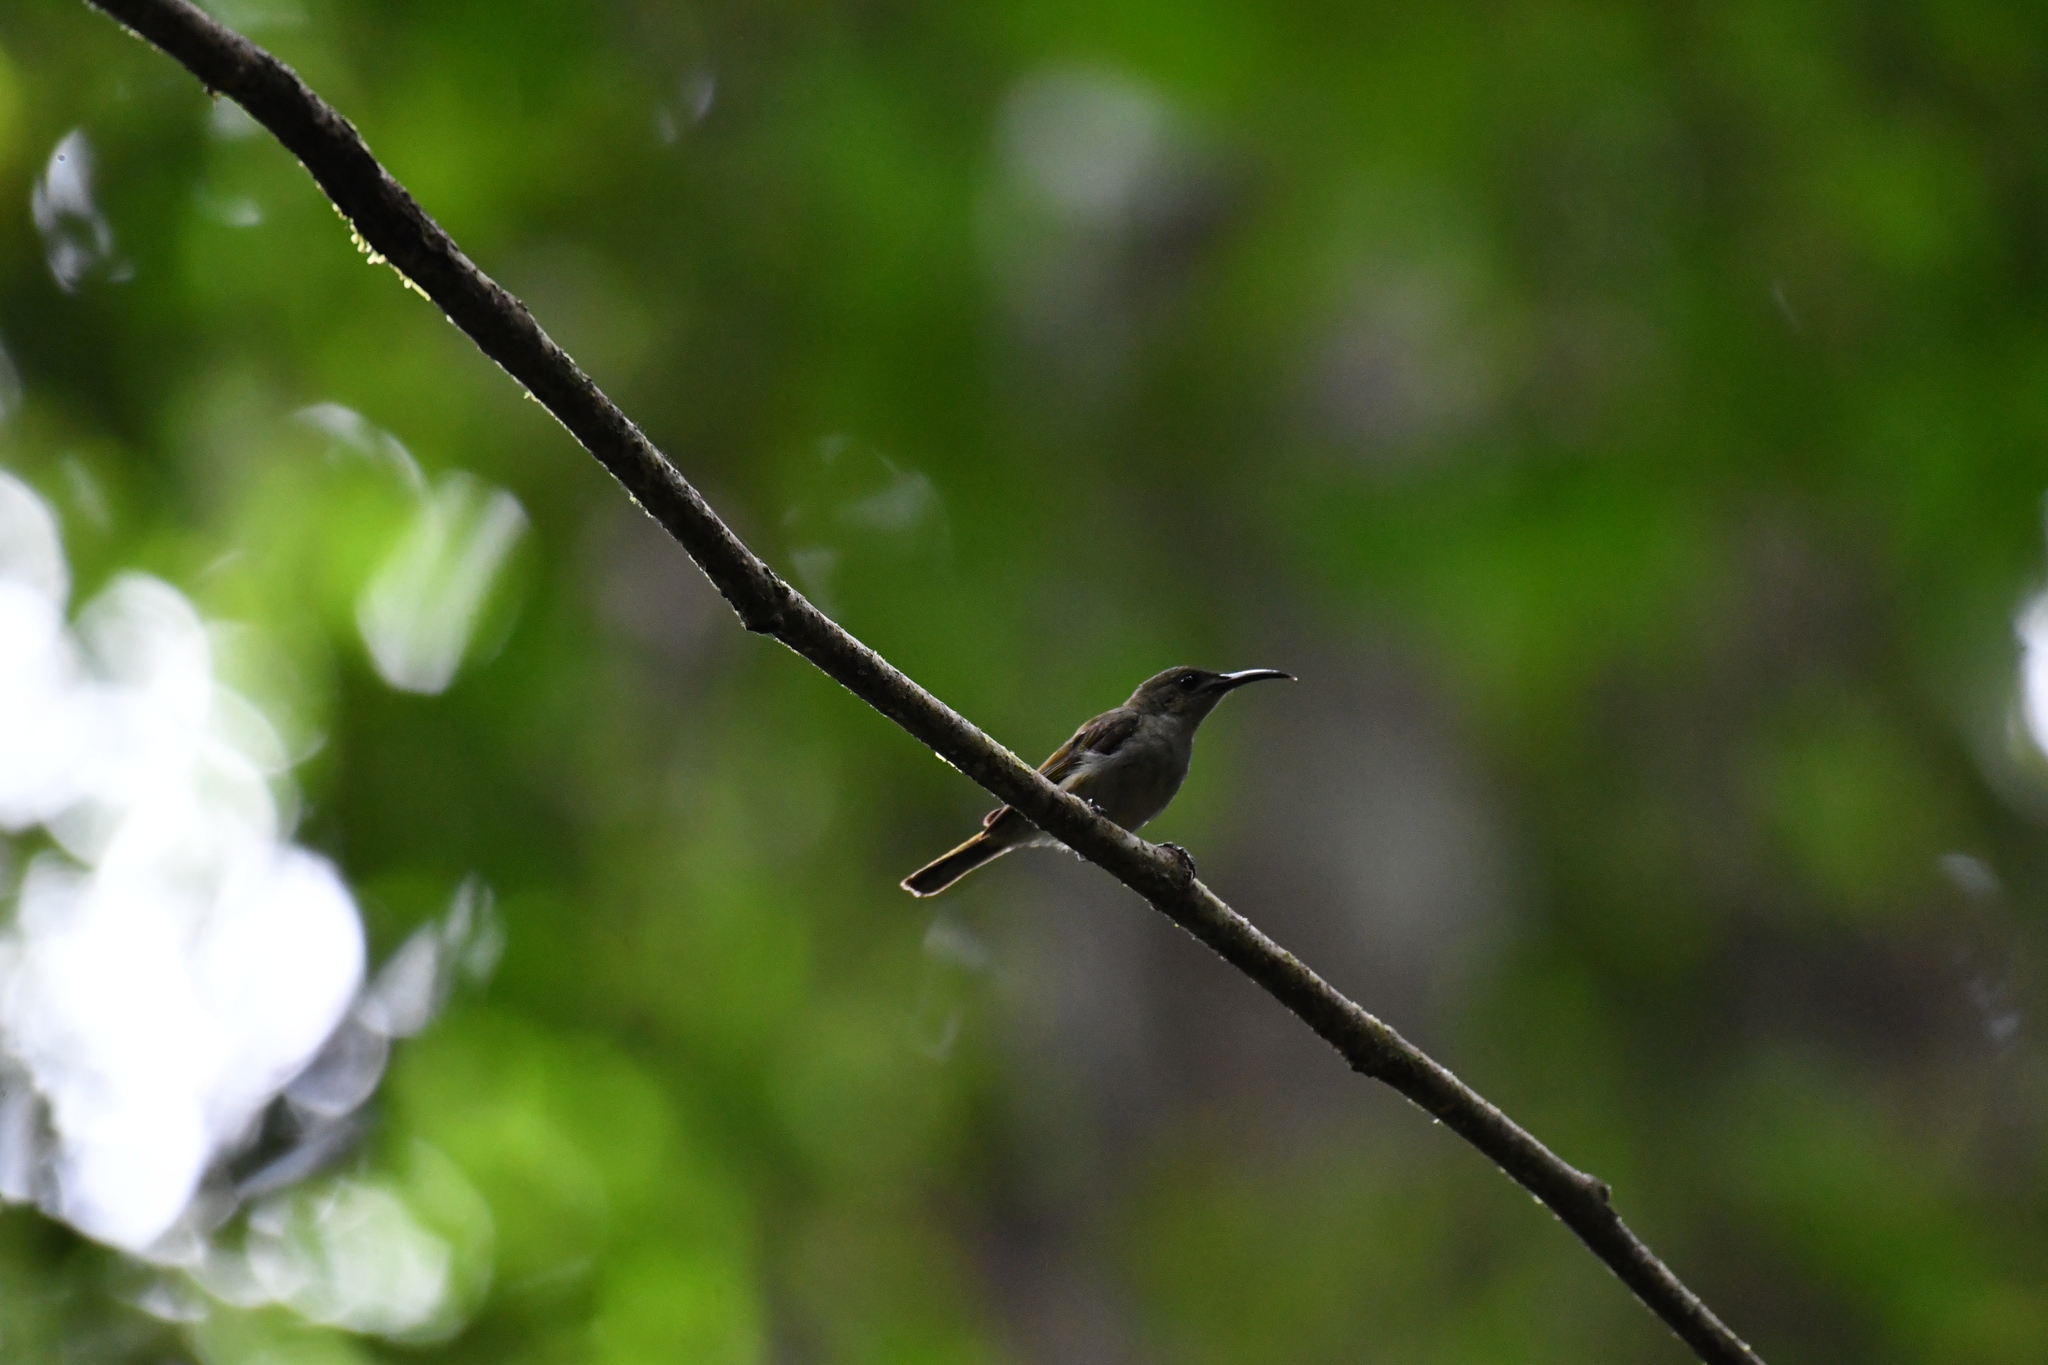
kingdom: Animalia
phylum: Chordata
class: Aves
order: Passeriformes
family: Nectariniidae
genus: Cyanomitra
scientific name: Cyanomitra olivacea
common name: Olive sunbird
